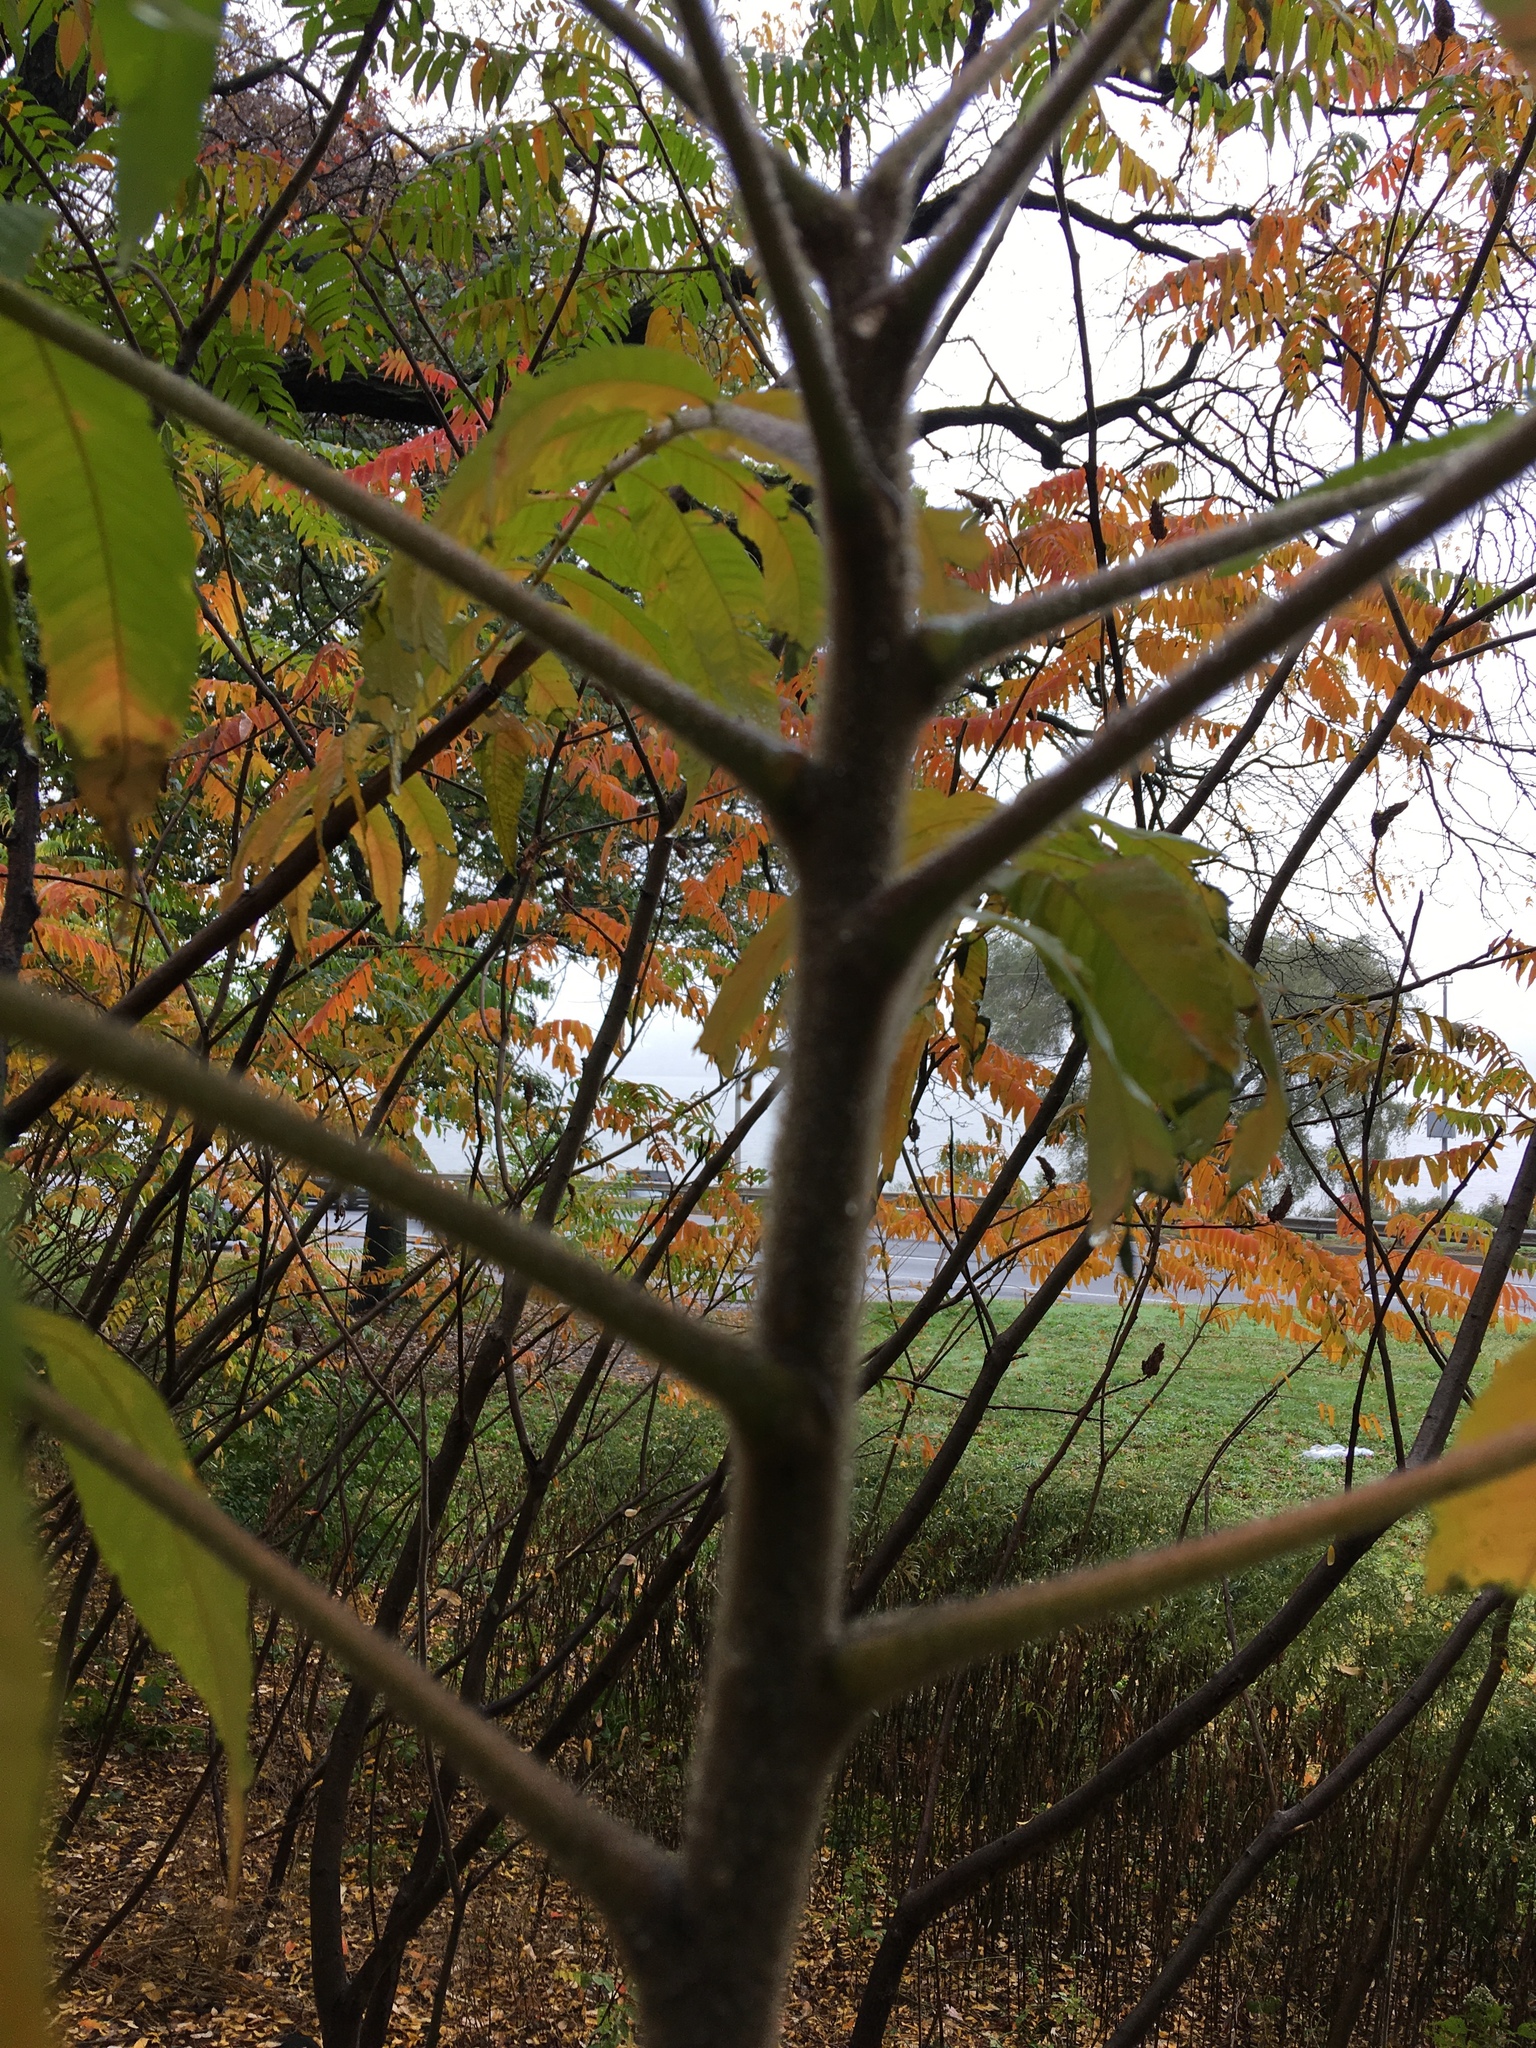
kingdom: Plantae
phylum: Tracheophyta
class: Magnoliopsida
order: Sapindales
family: Anacardiaceae
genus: Rhus
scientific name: Rhus typhina
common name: Staghorn sumac
